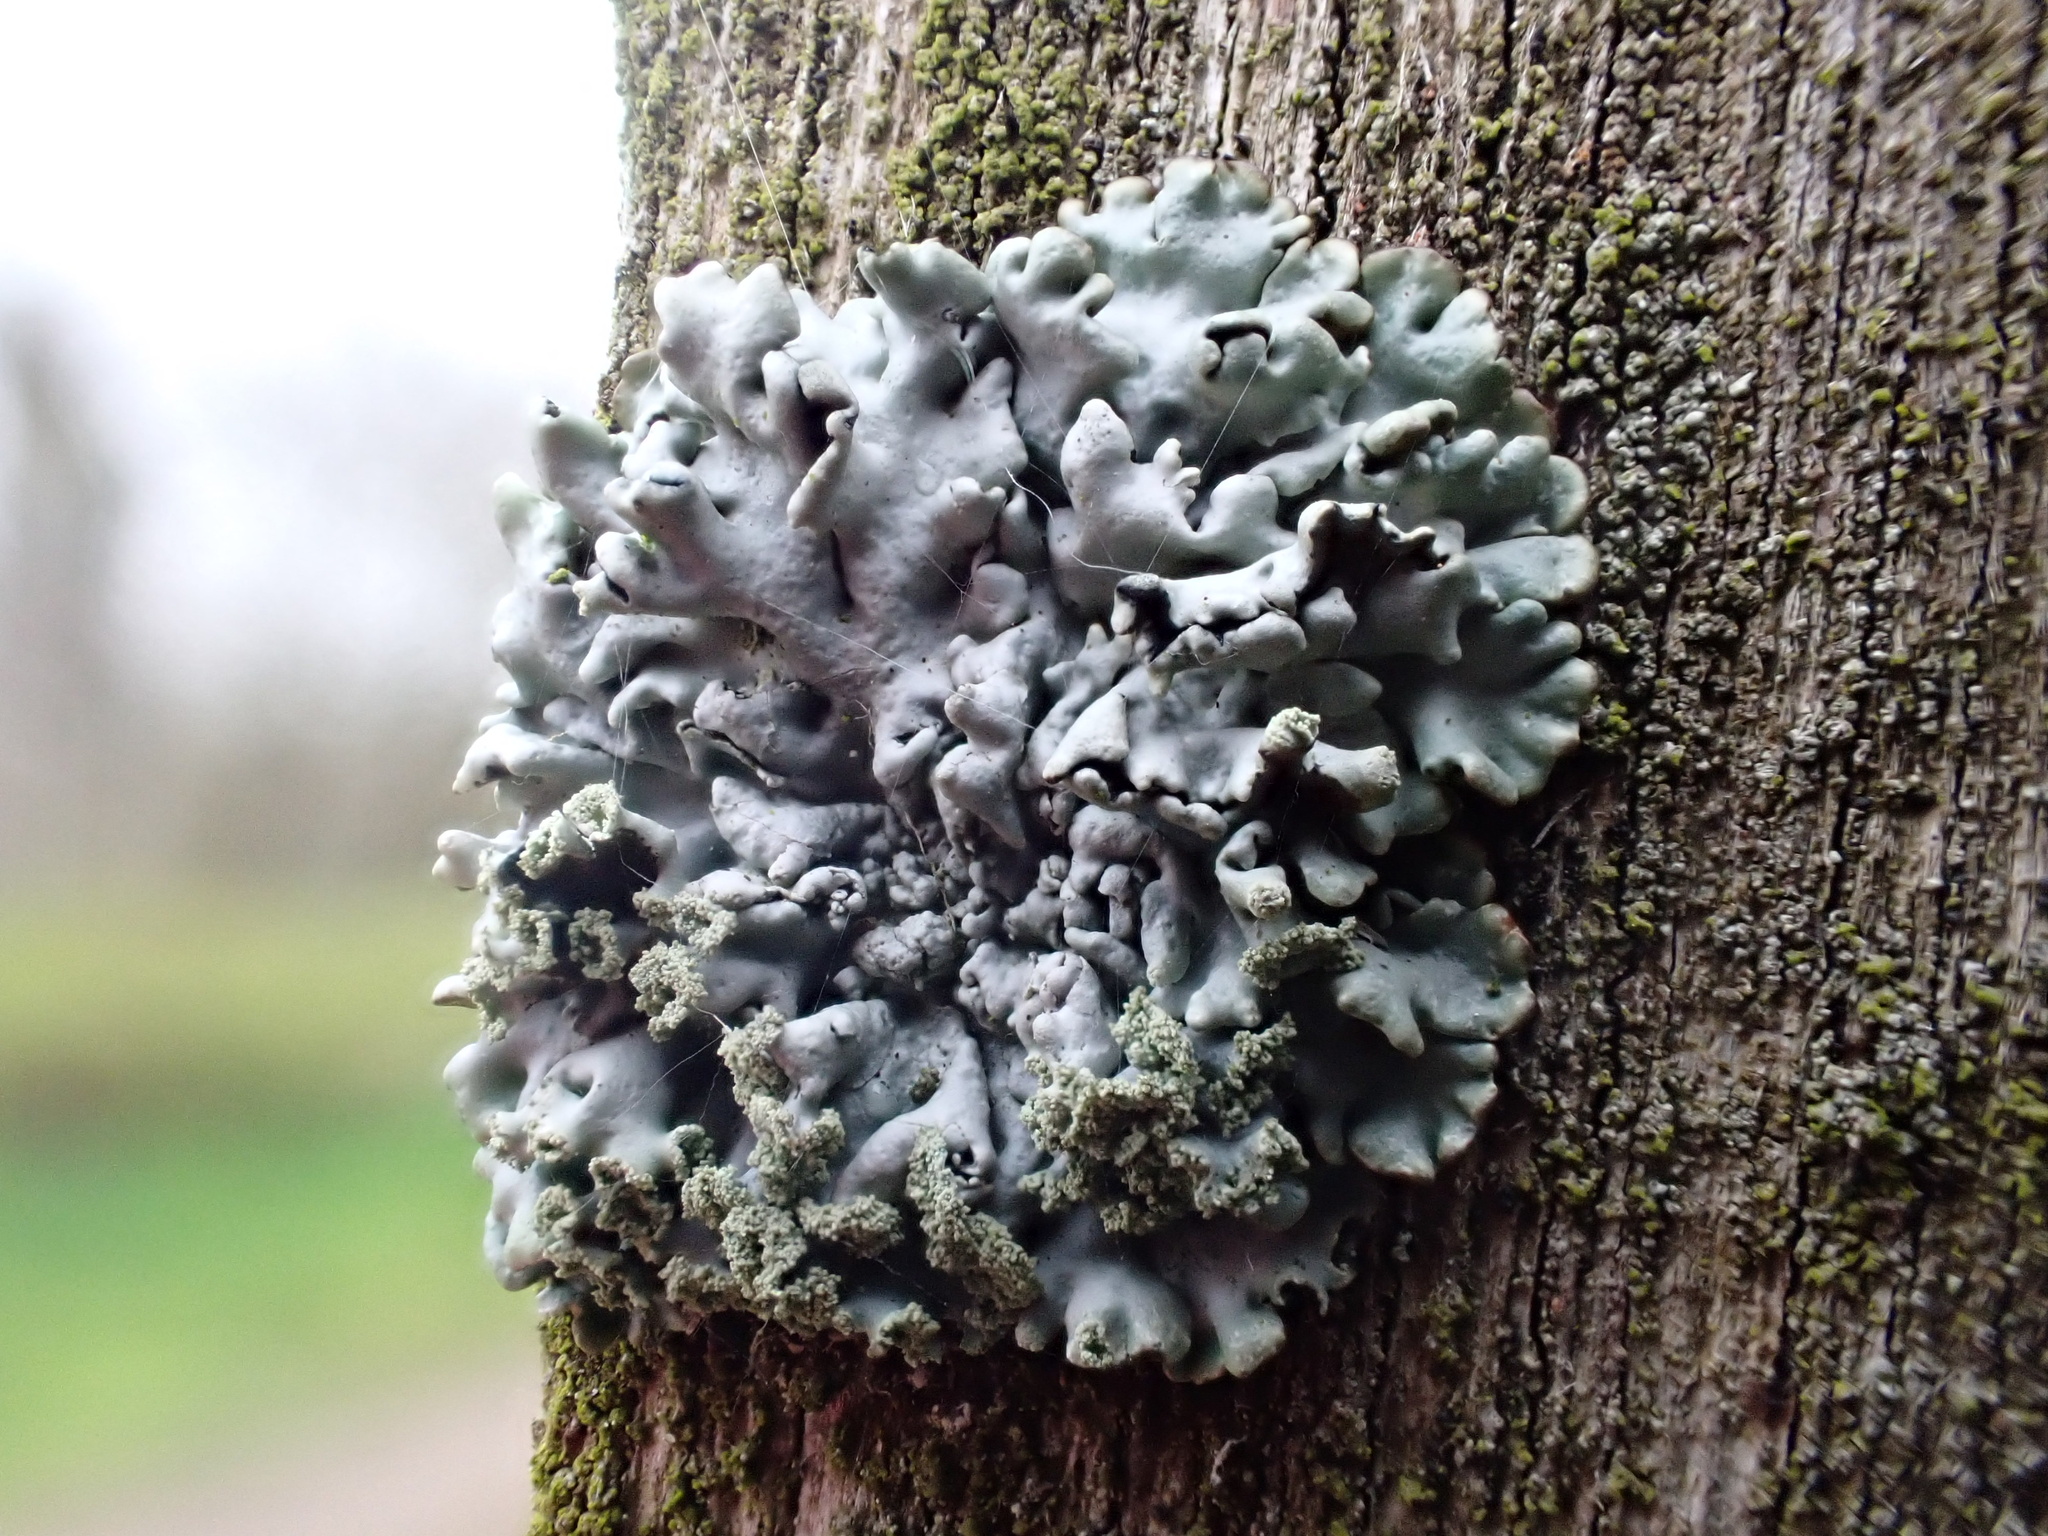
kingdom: Fungi
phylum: Ascomycota
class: Lecanoromycetes
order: Lecanorales
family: Parmeliaceae
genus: Hypogymnia
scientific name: Hypogymnia physodes
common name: Dark crottle
